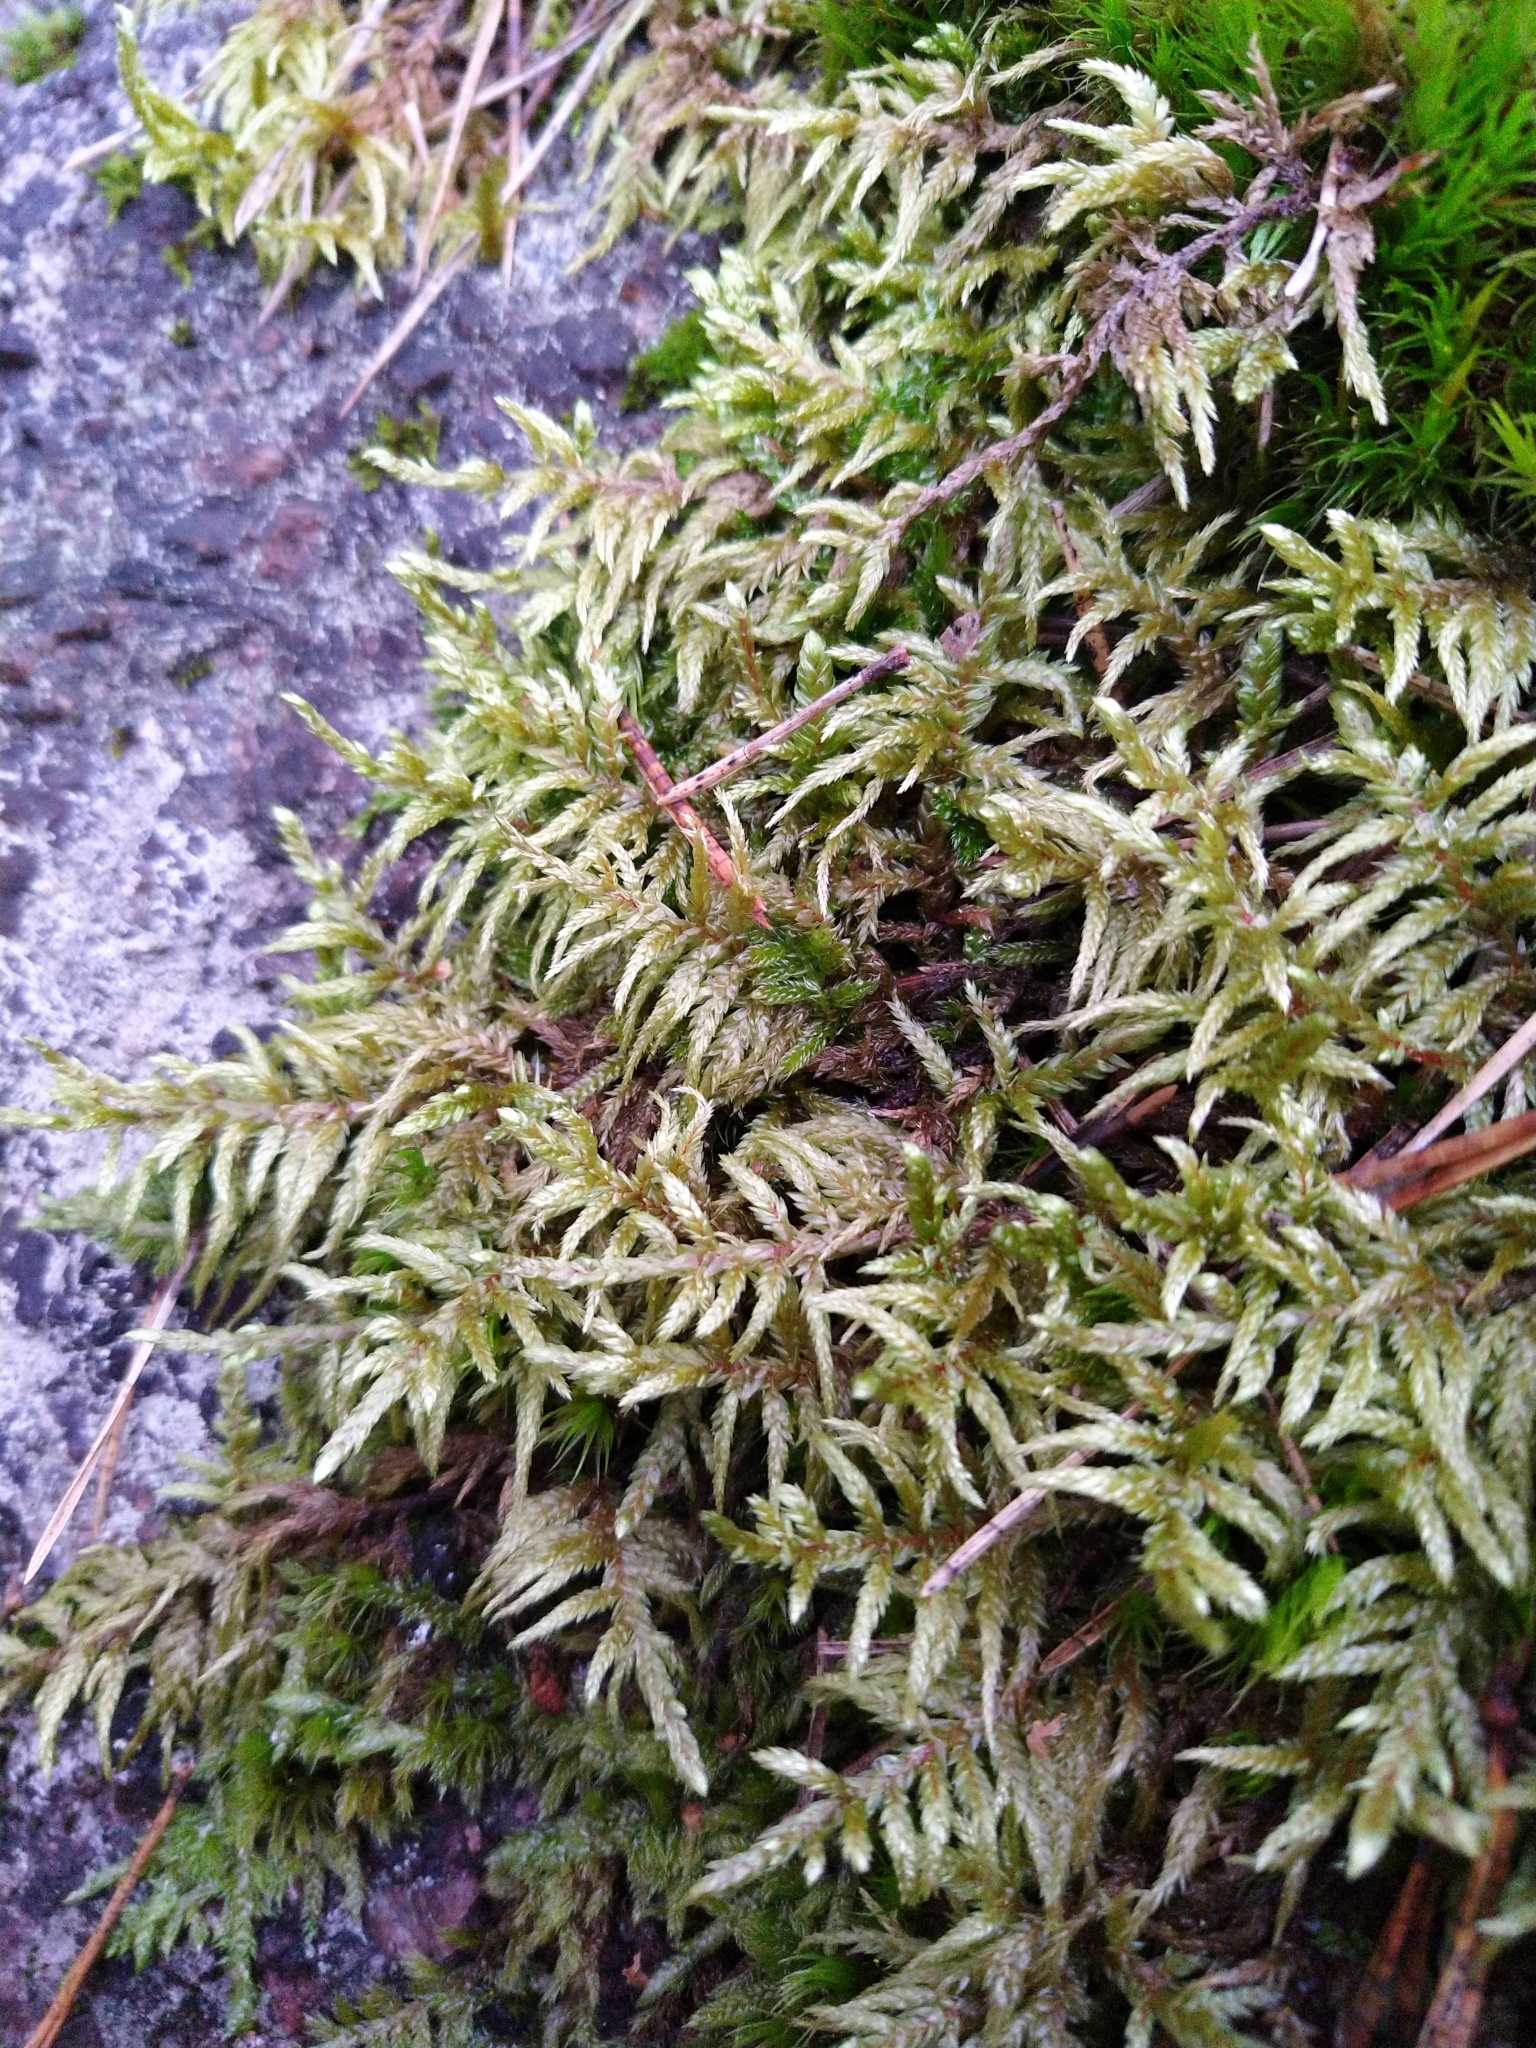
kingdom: Plantae
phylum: Bryophyta
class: Bryopsida
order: Hypnales
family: Hylocomiaceae
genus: Pleurozium
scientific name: Pleurozium schreberi
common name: Red-stemmed feather moss
